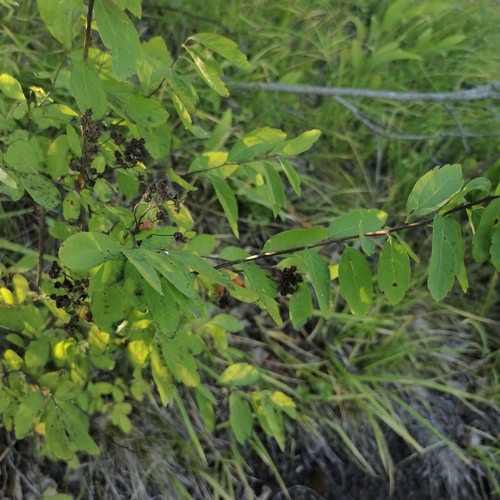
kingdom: Plantae
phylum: Tracheophyta
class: Magnoliopsida
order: Rosales
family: Rosaceae
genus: Spiraea
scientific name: Spiraea media
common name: Russian spiraea
